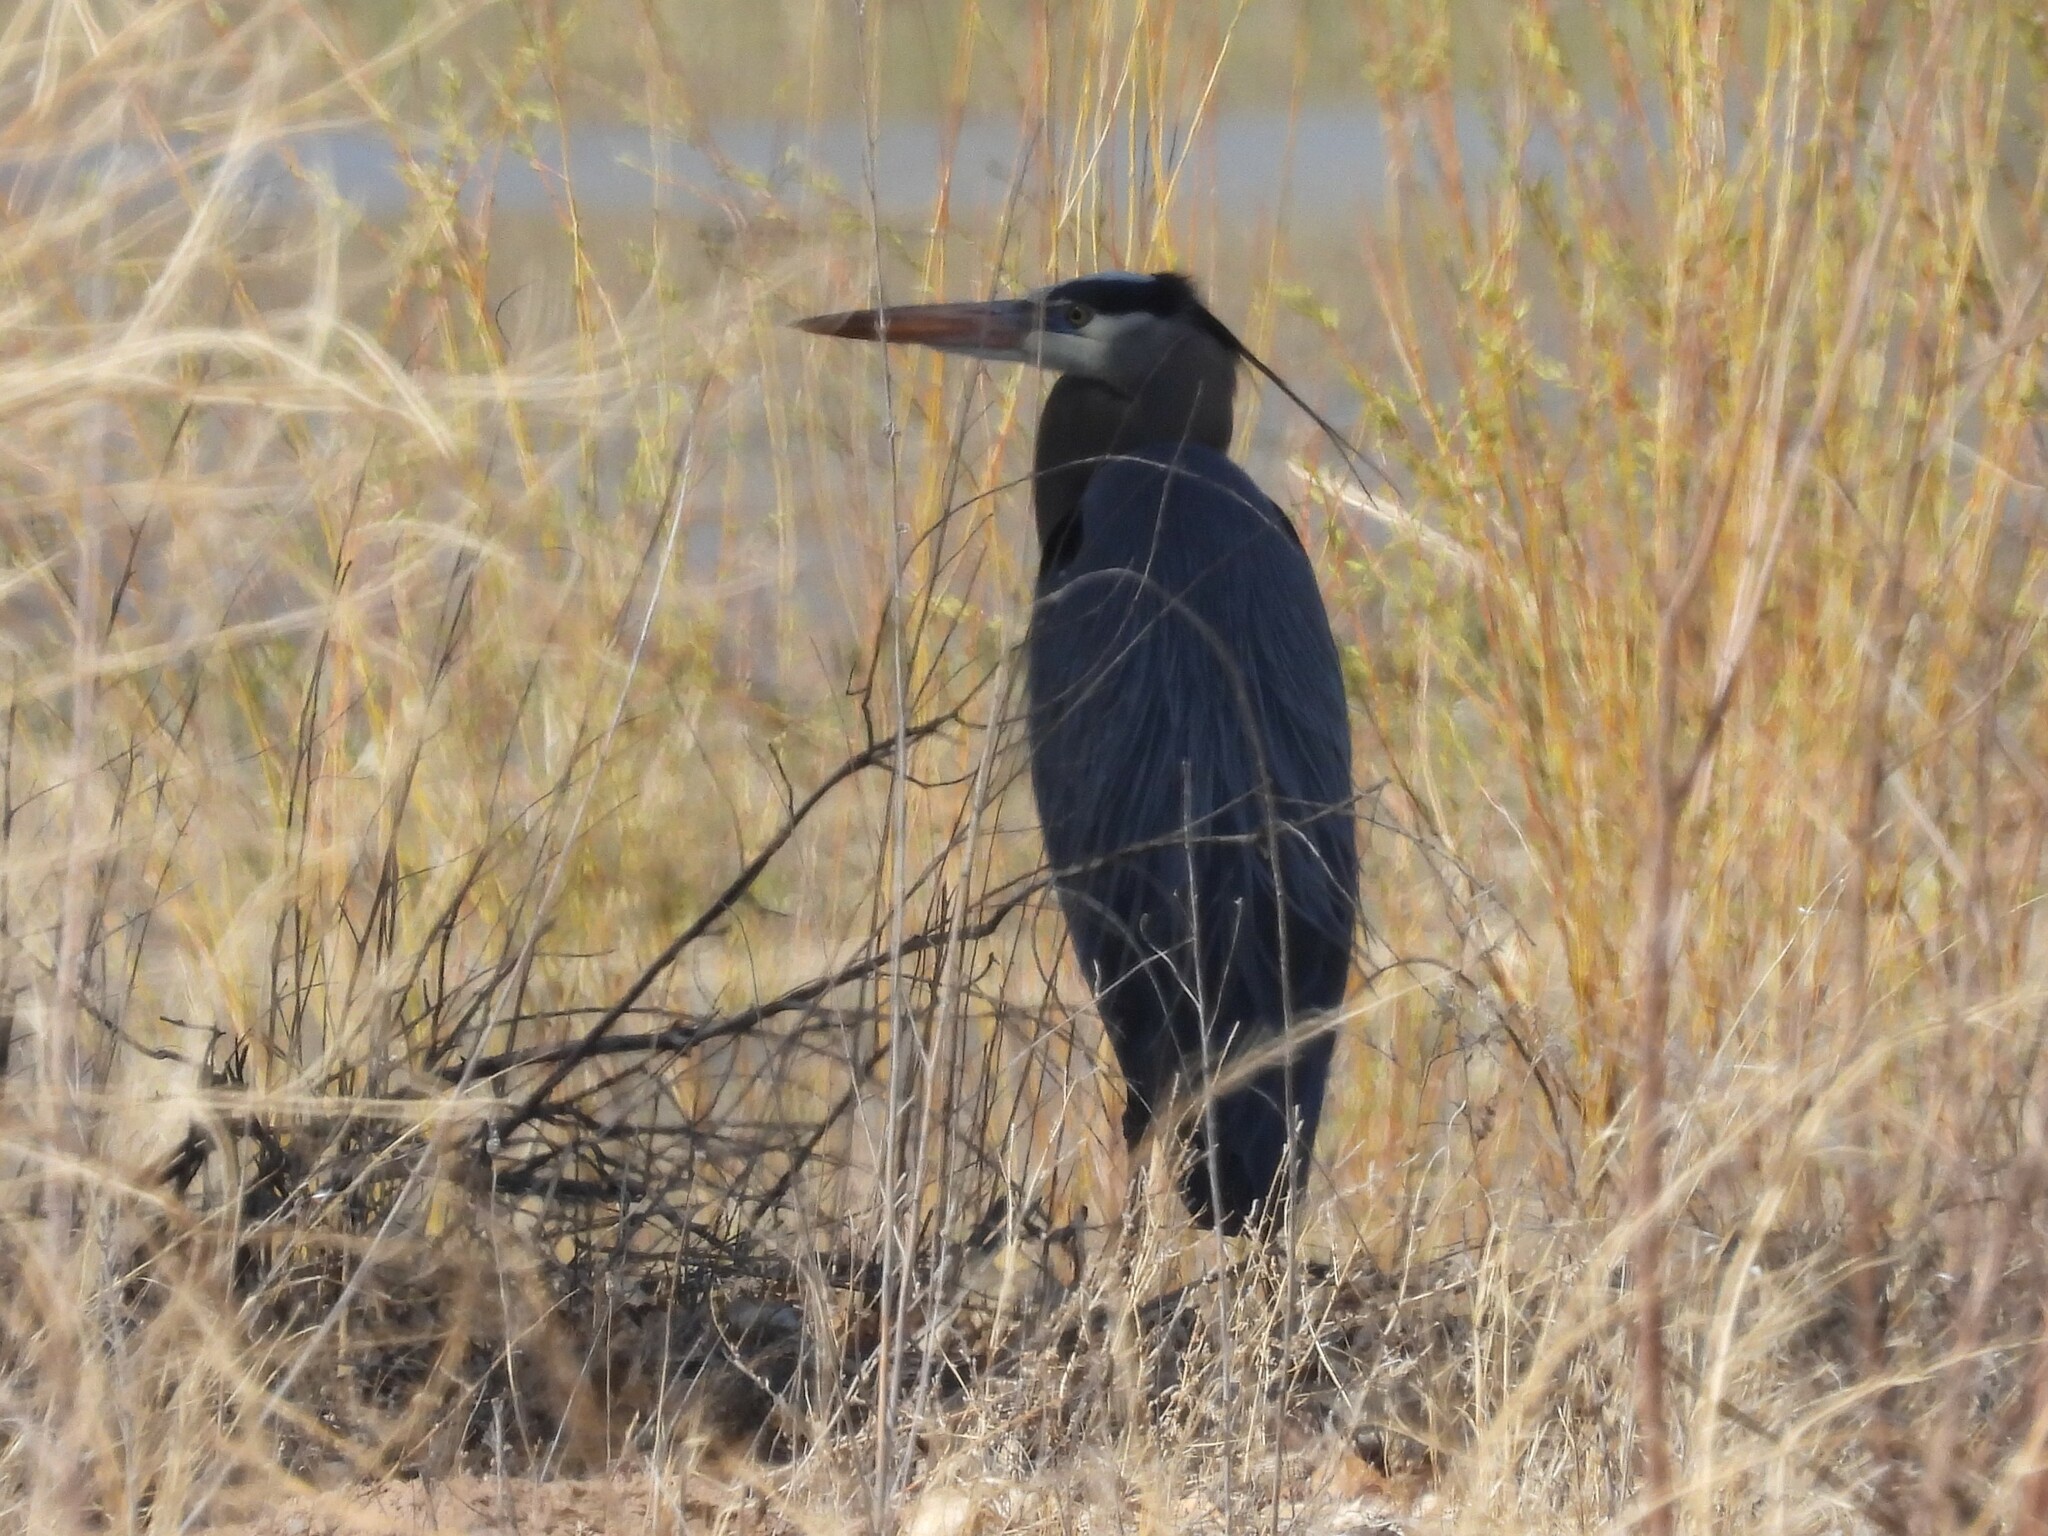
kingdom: Animalia
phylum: Chordata
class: Aves
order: Pelecaniformes
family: Ardeidae
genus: Ardea
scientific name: Ardea herodias
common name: Great blue heron
